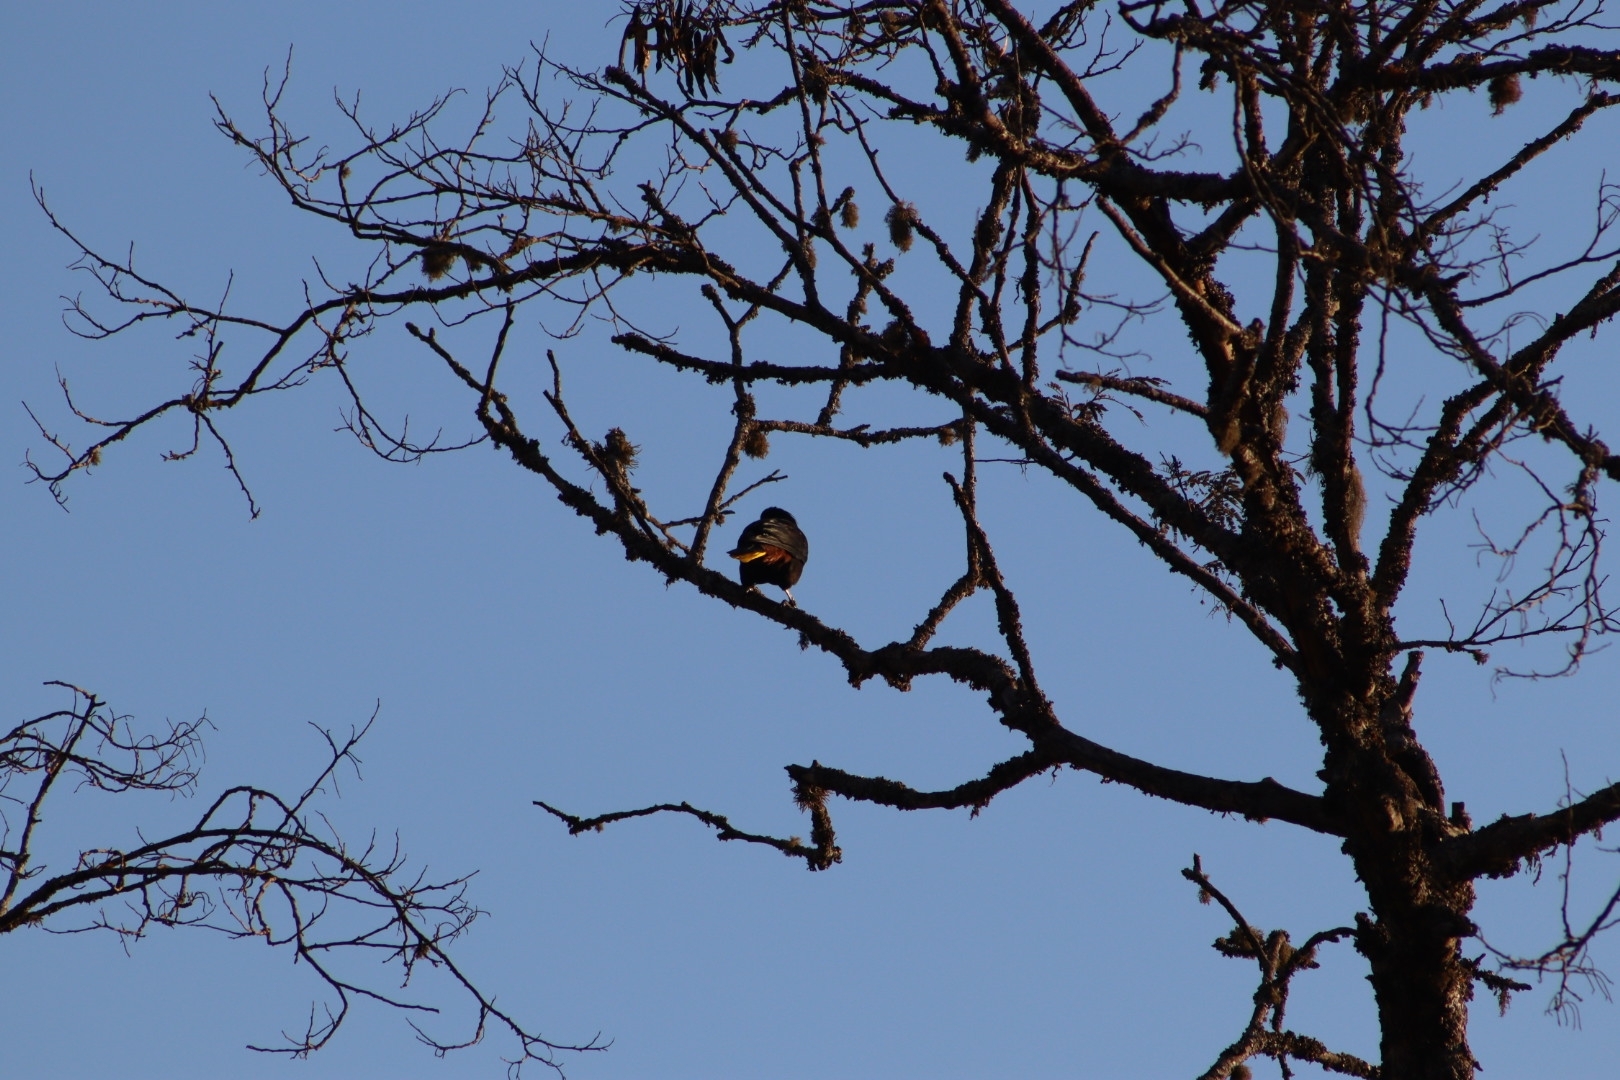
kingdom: Animalia
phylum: Chordata
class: Aves
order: Passeriformes
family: Icteridae
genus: Psarocolius
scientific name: Psarocolius decumanus
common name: Crested oropendola
